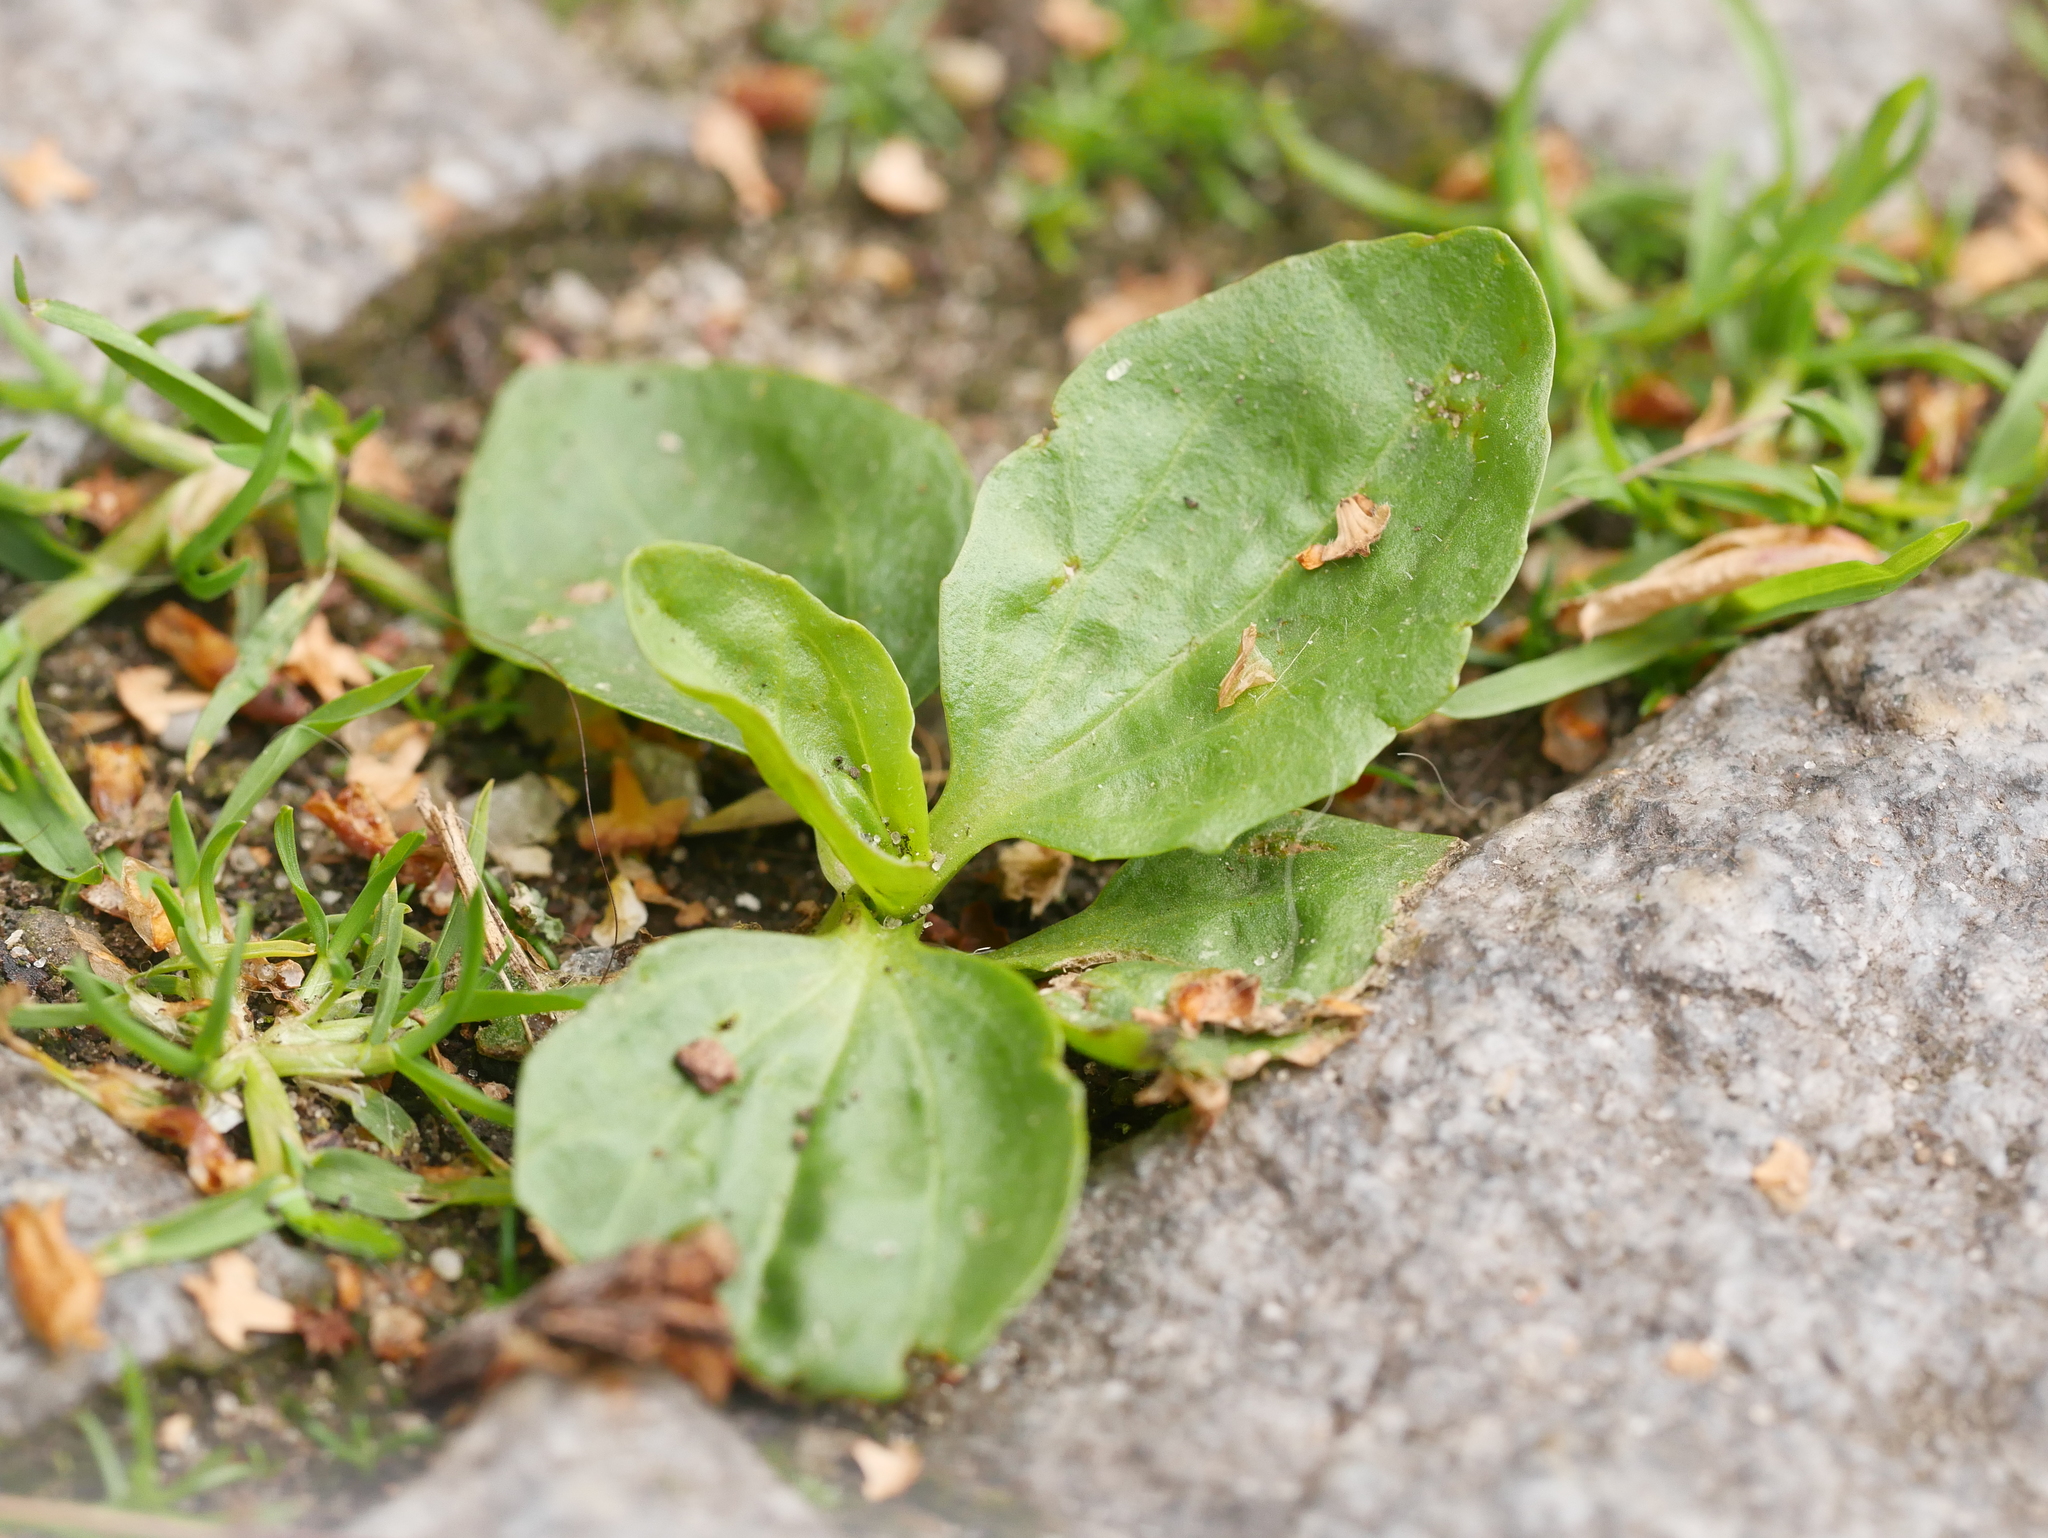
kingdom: Plantae
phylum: Tracheophyta
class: Magnoliopsida
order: Lamiales
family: Plantaginaceae
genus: Plantago
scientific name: Plantago major
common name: Common plantain
